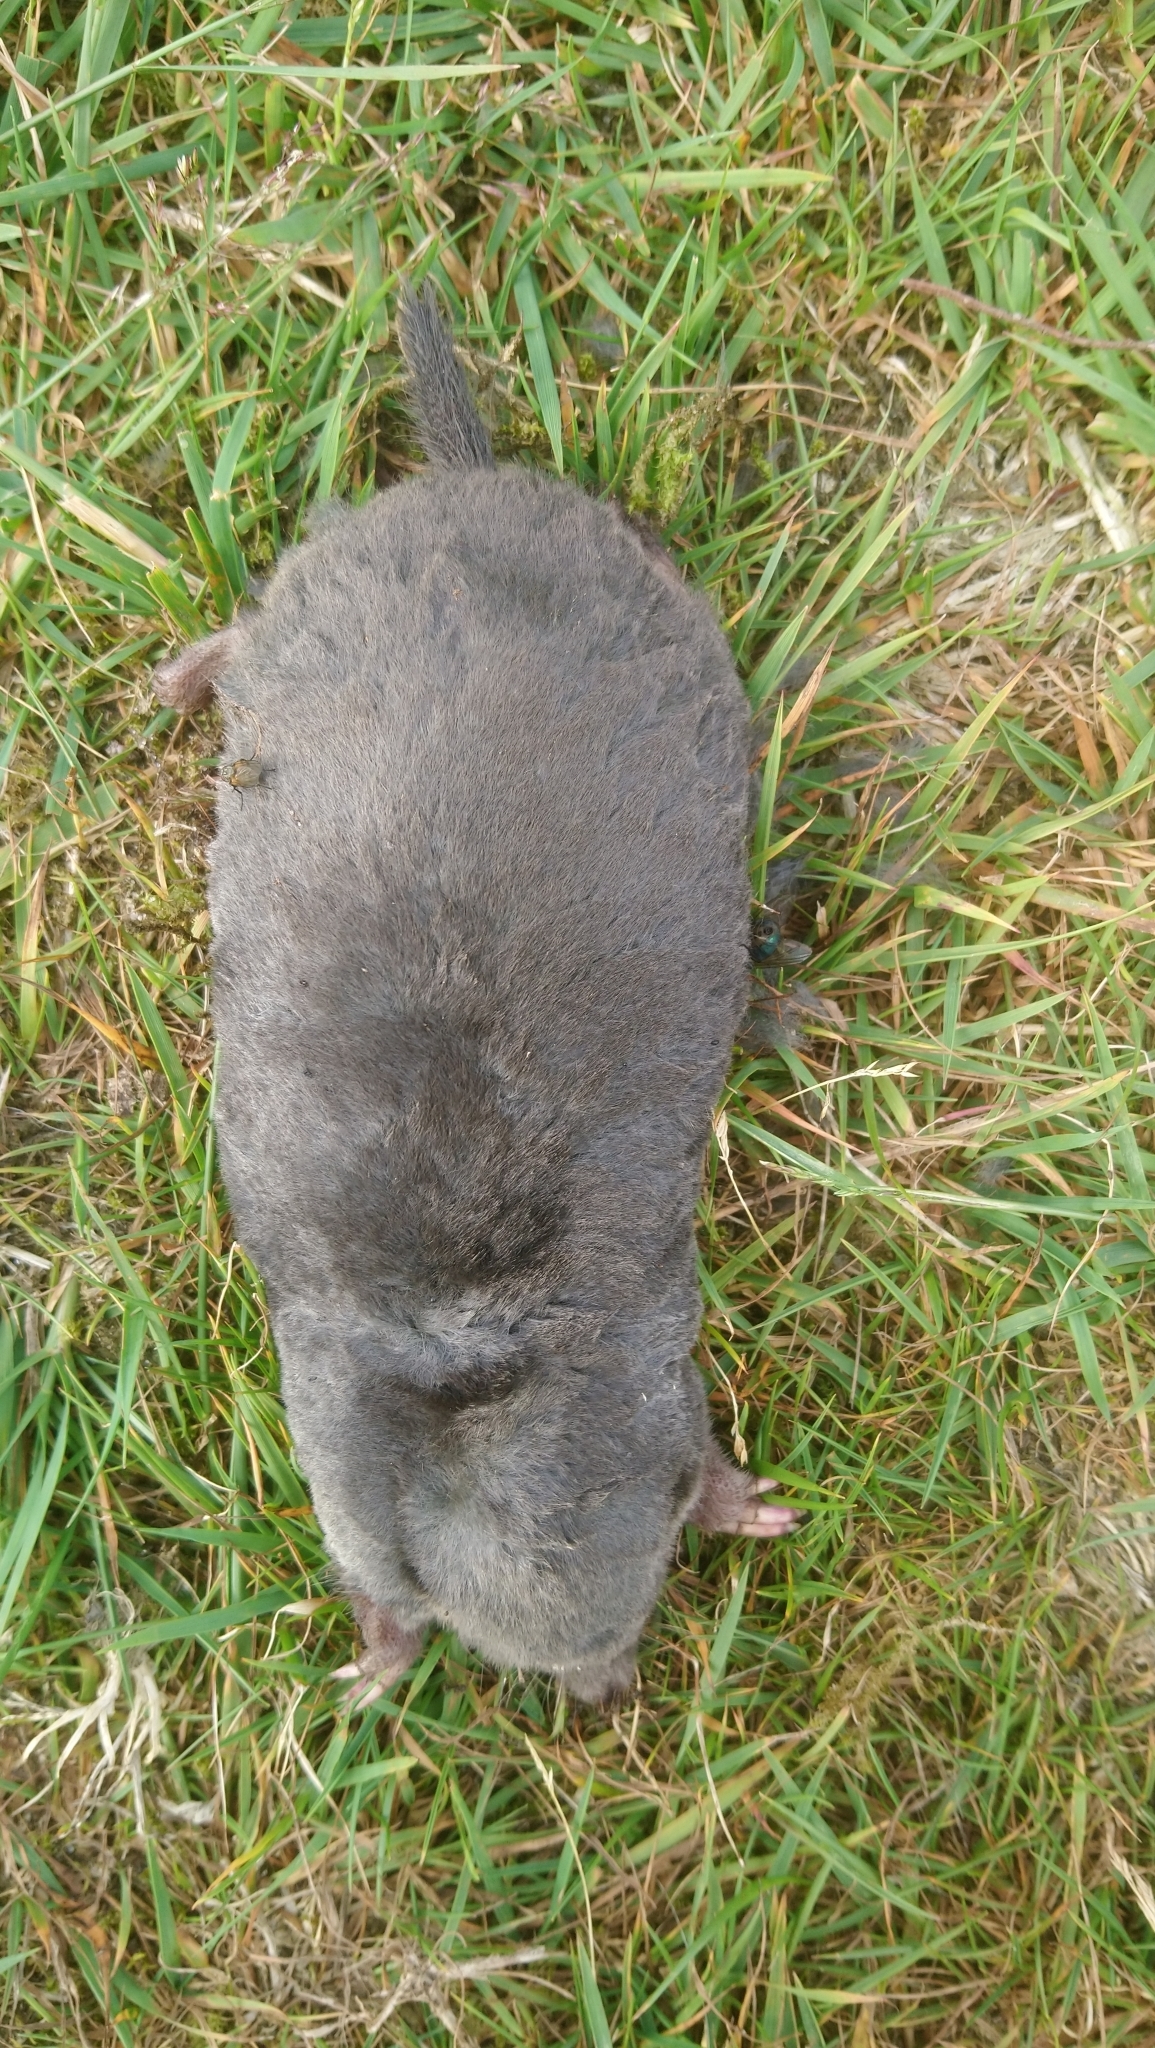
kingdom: Animalia
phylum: Chordata
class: Mammalia
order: Soricomorpha
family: Talpidae
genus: Talpa
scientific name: Talpa europaea
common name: European mole
